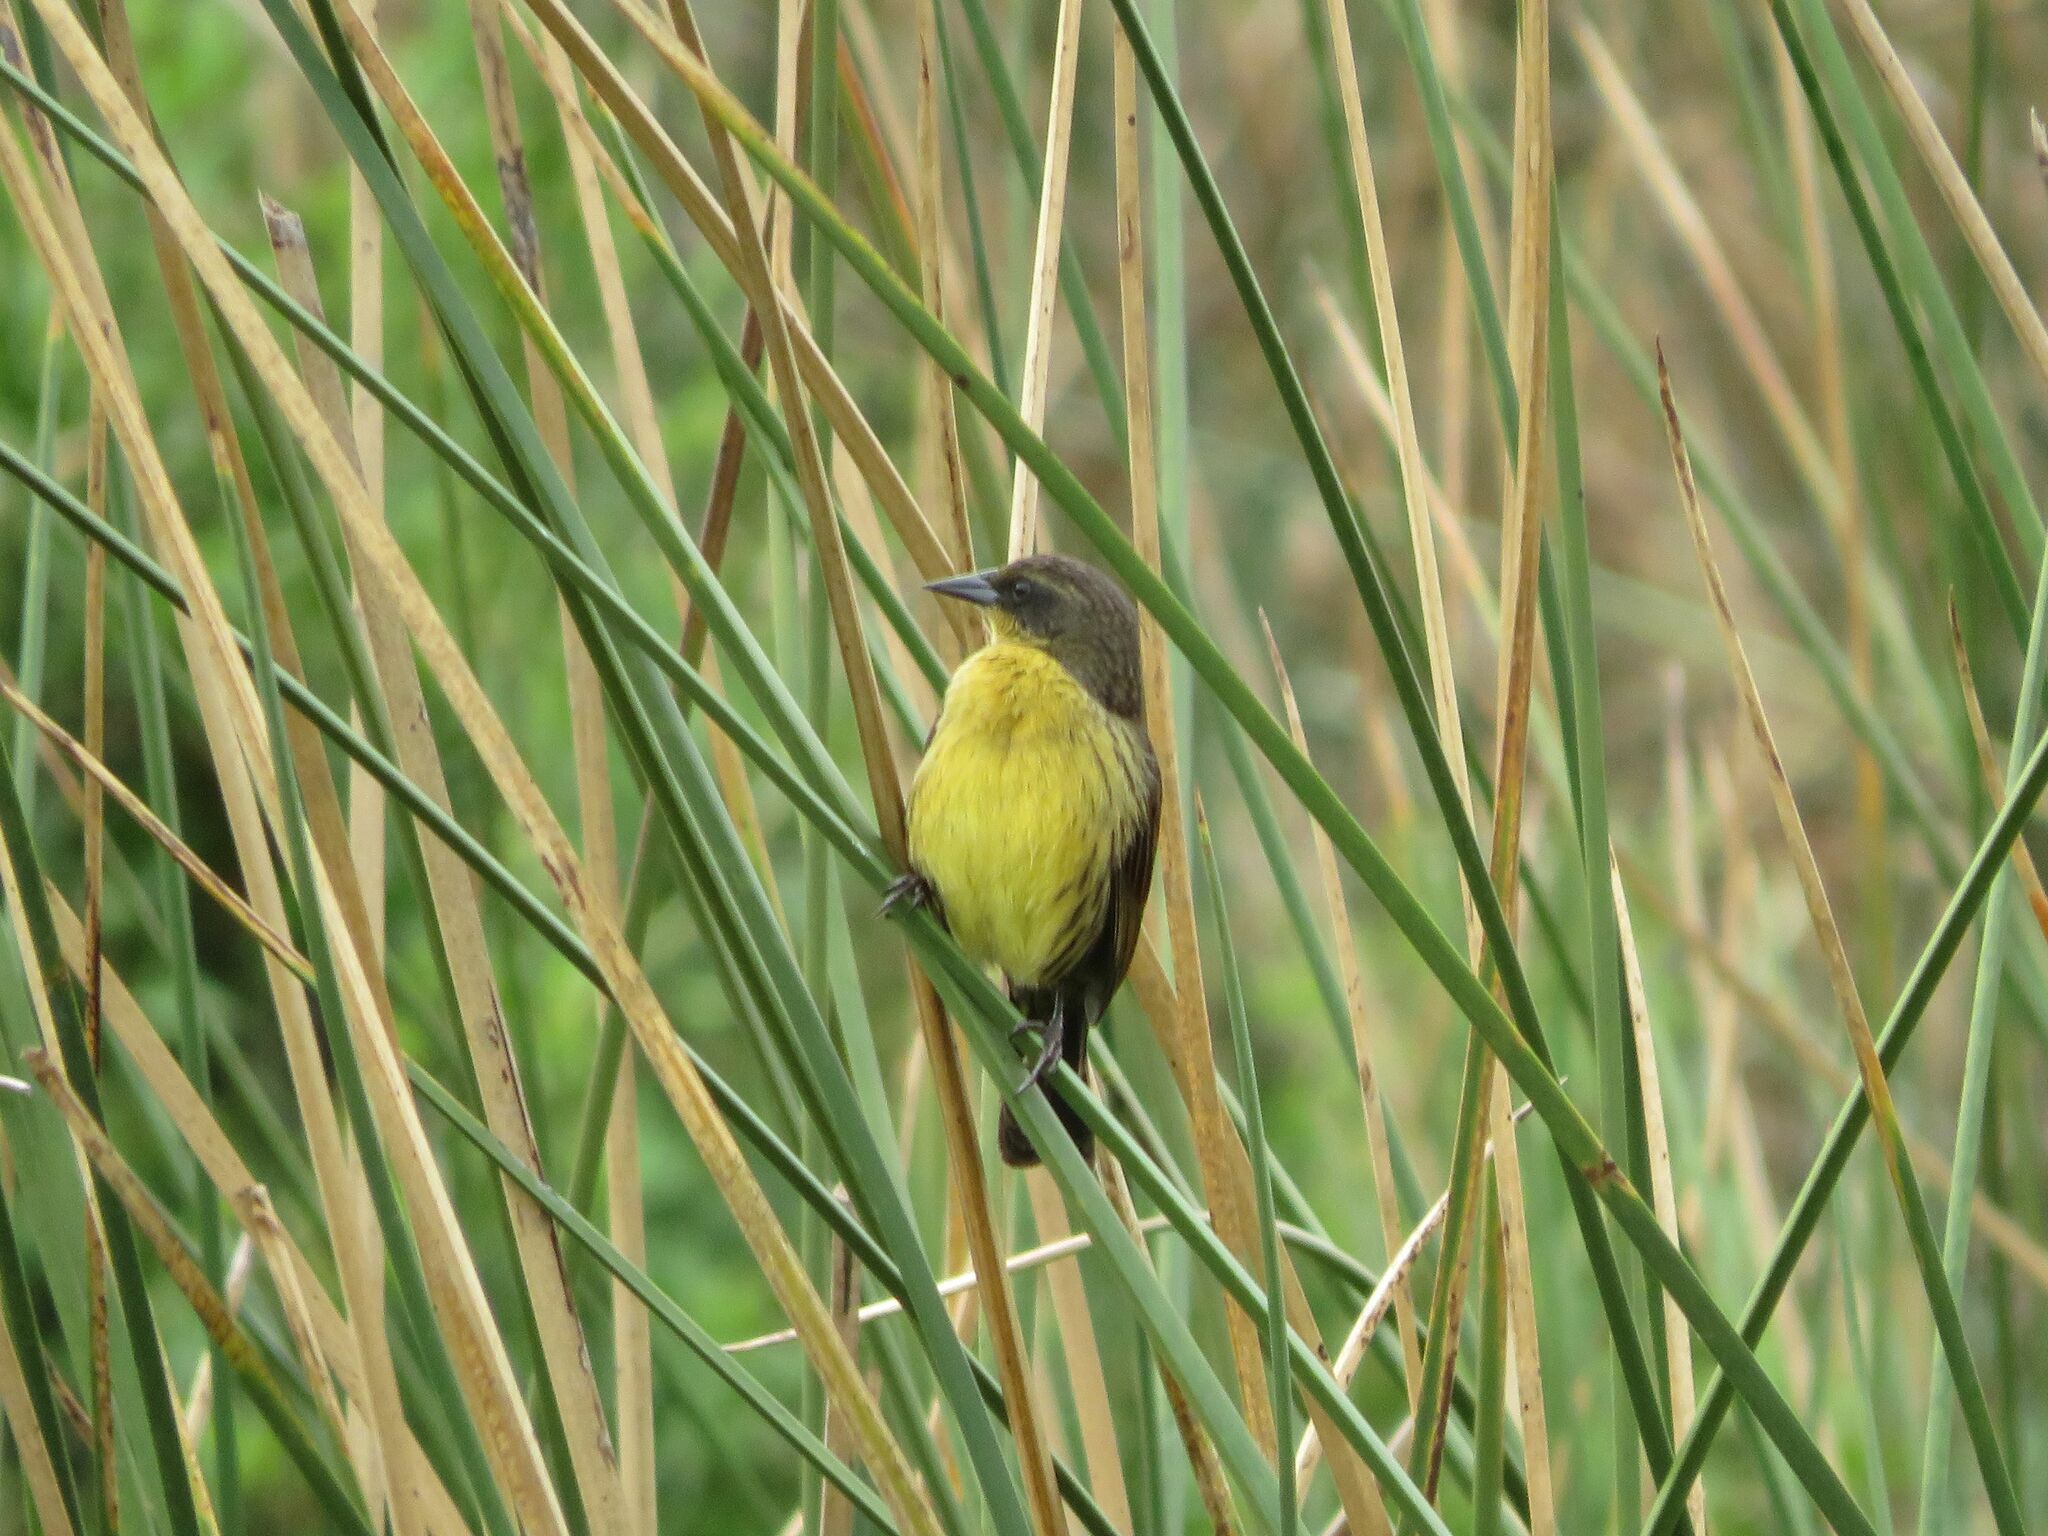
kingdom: Animalia
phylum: Chordata
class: Aves
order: Passeriformes
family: Icteridae
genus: Agelasticus
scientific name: Agelasticus cyanopus
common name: Unicolored blackbird
